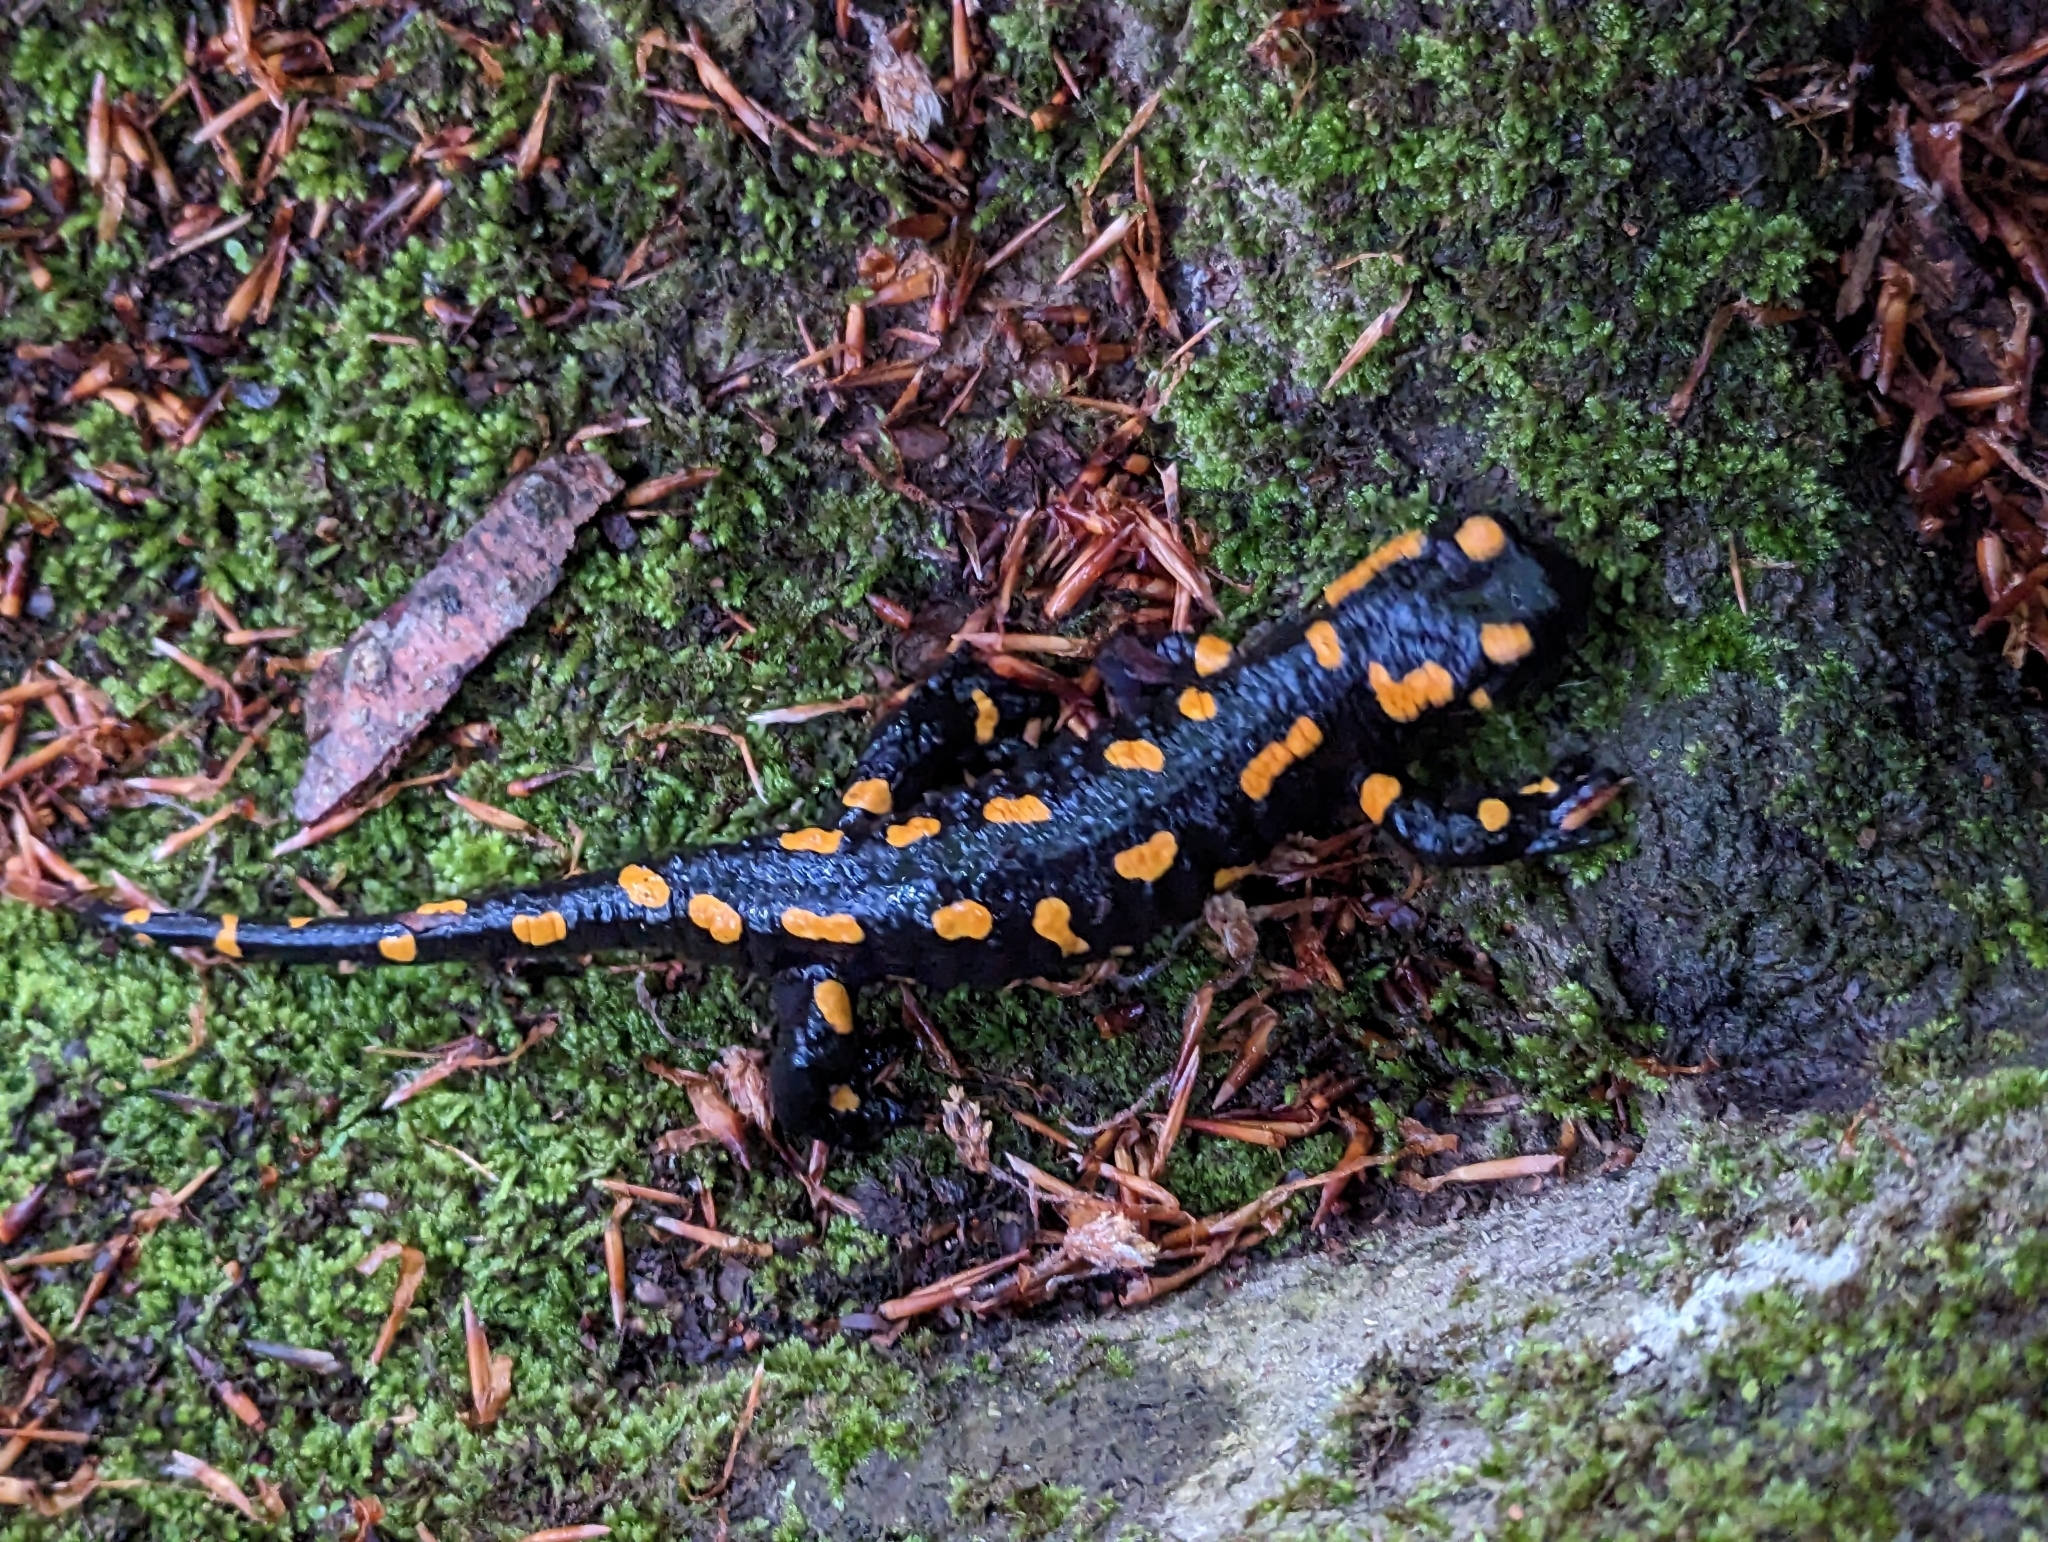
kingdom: Animalia
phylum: Chordata
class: Amphibia
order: Caudata
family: Salamandridae
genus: Salamandra
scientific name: Salamandra salamandra
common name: Fire salamander
